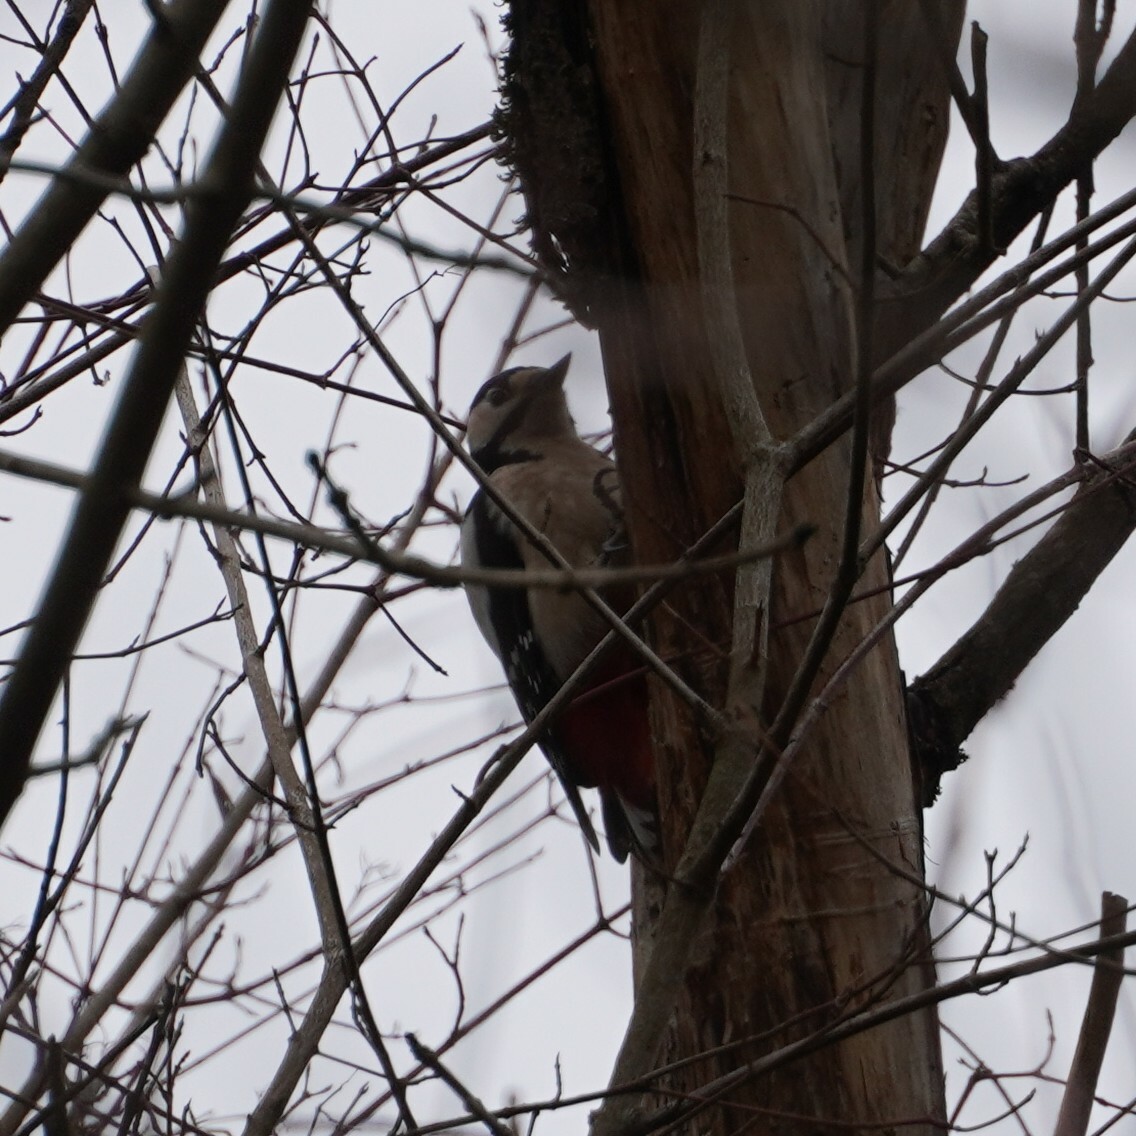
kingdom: Animalia
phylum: Chordata
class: Aves
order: Piciformes
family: Picidae
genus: Dendrocopos
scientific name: Dendrocopos major
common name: Great spotted woodpecker
